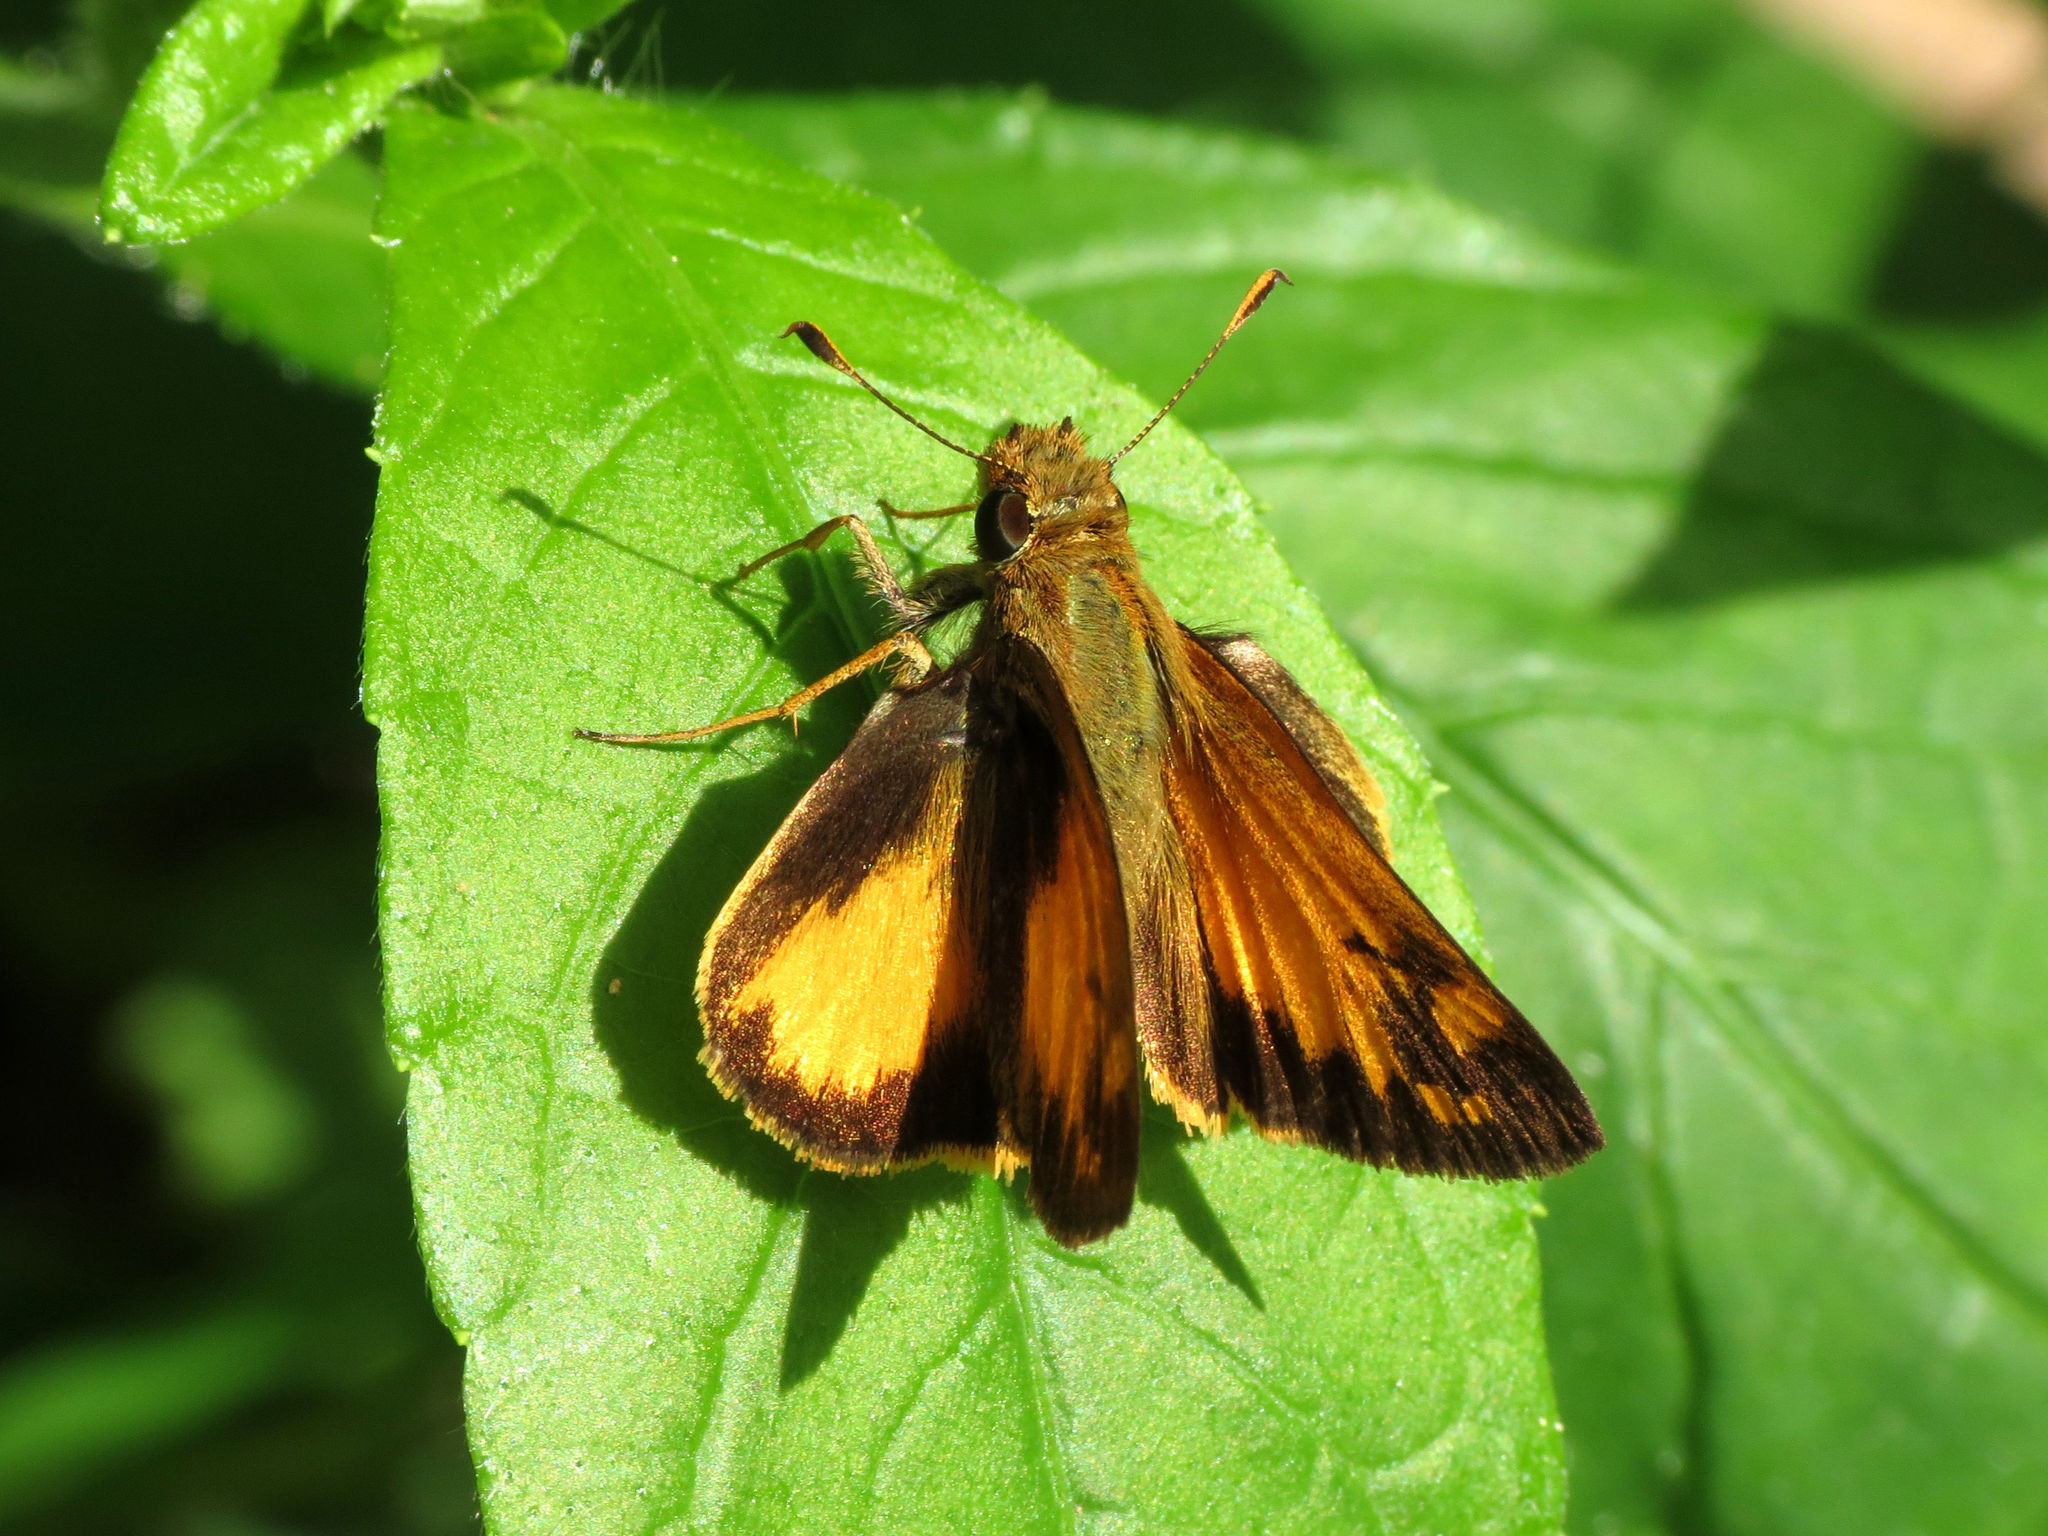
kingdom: Animalia
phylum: Arthropoda
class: Insecta
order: Lepidoptera
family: Hesperiidae
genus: Lon
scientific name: Lon zabulon
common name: Zabulon skipper
